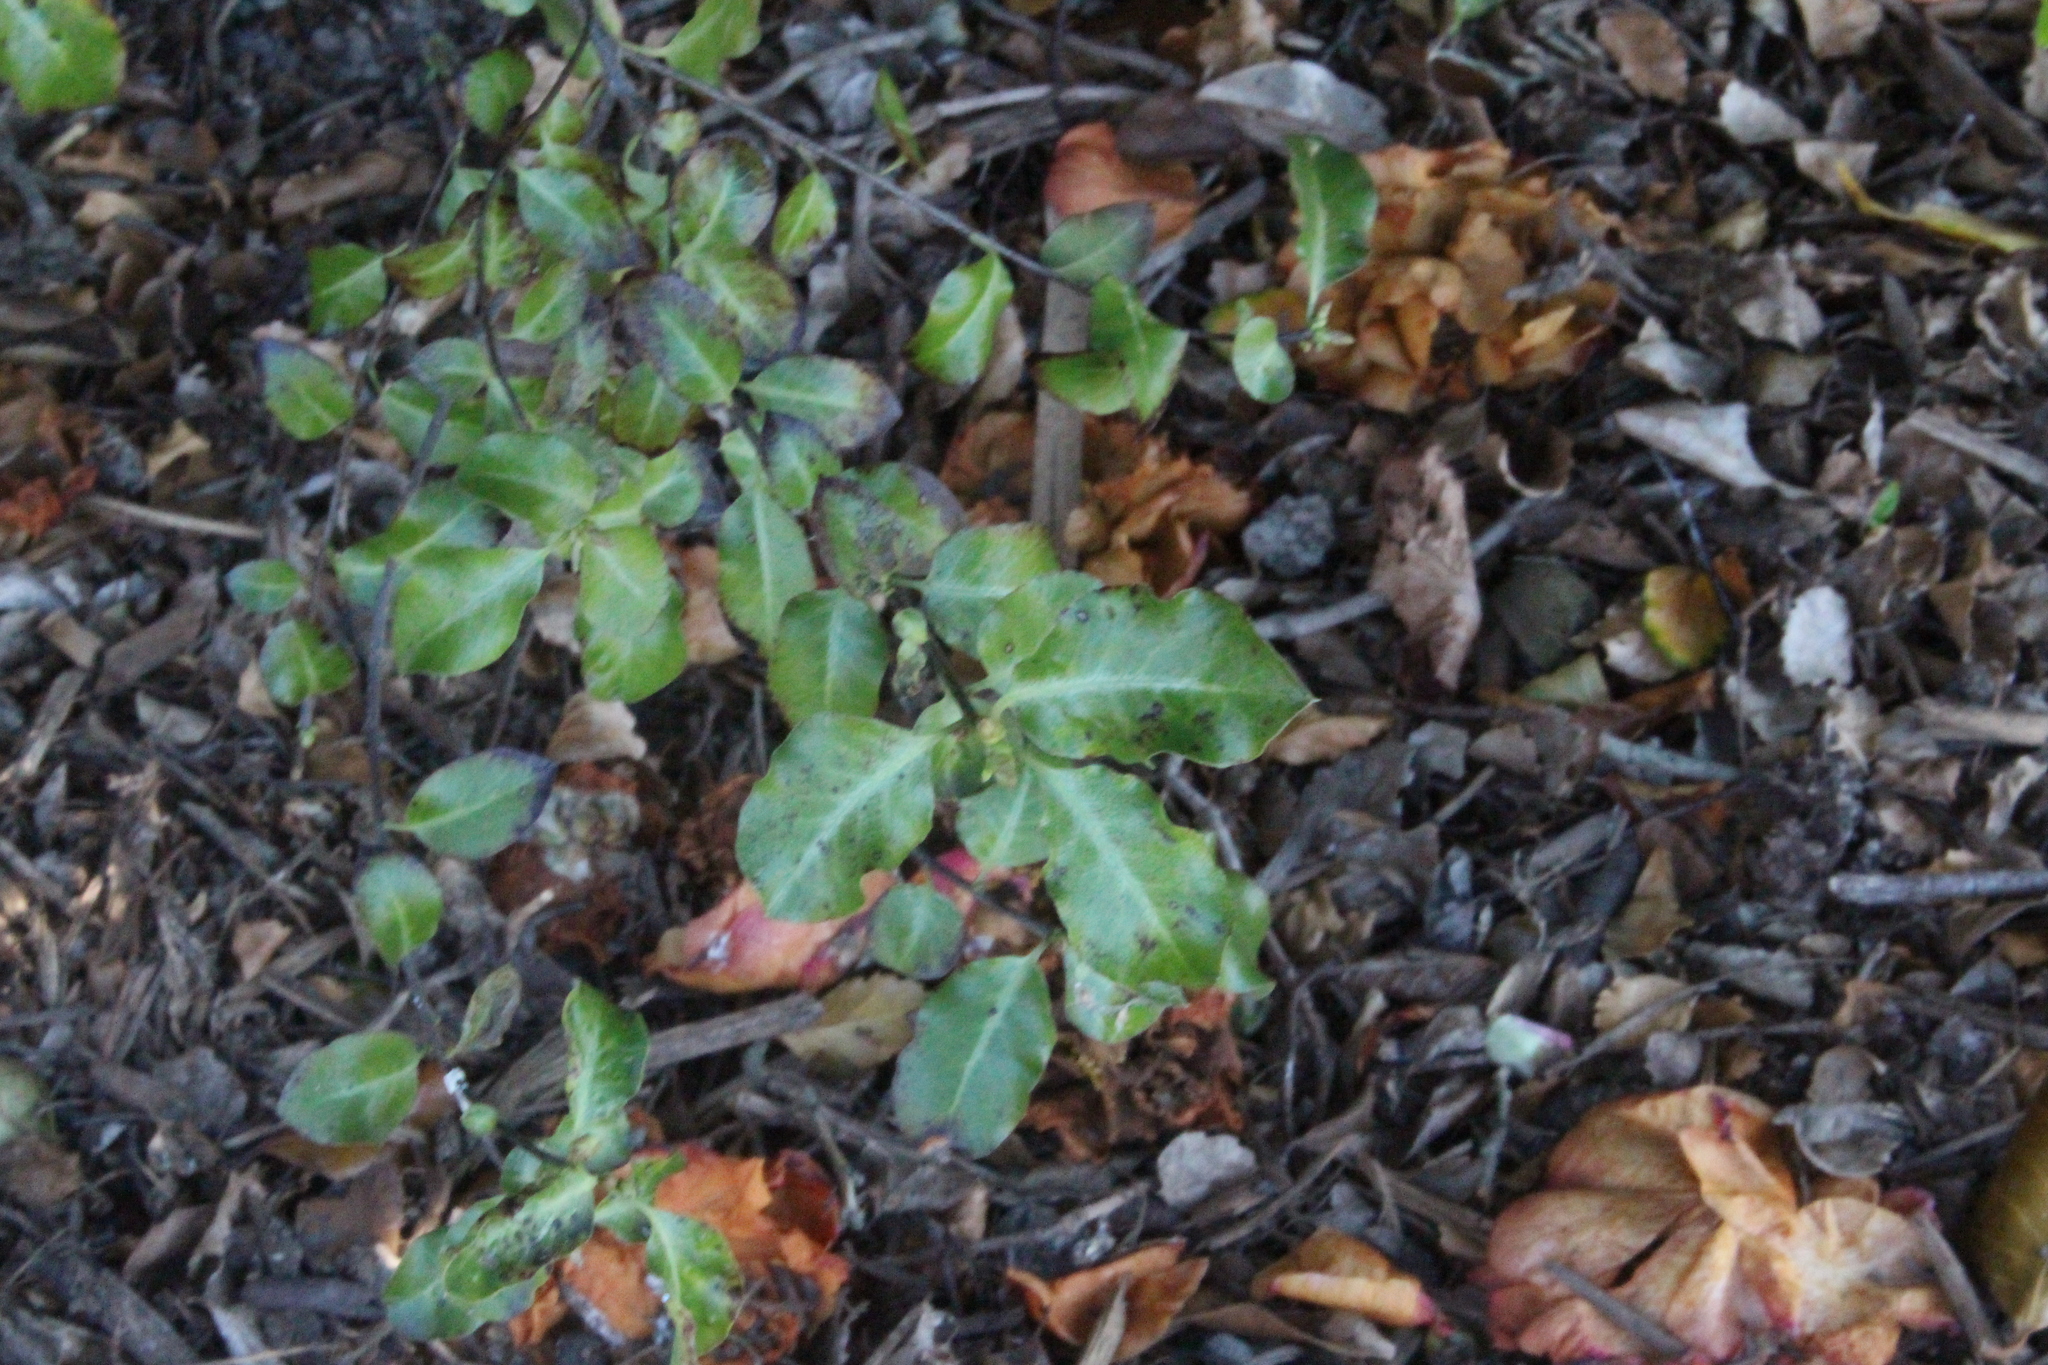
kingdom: Plantae
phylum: Tracheophyta
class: Magnoliopsida
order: Apiales
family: Pittosporaceae
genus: Pittosporum
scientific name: Pittosporum tenuifolium
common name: Kohuhu
